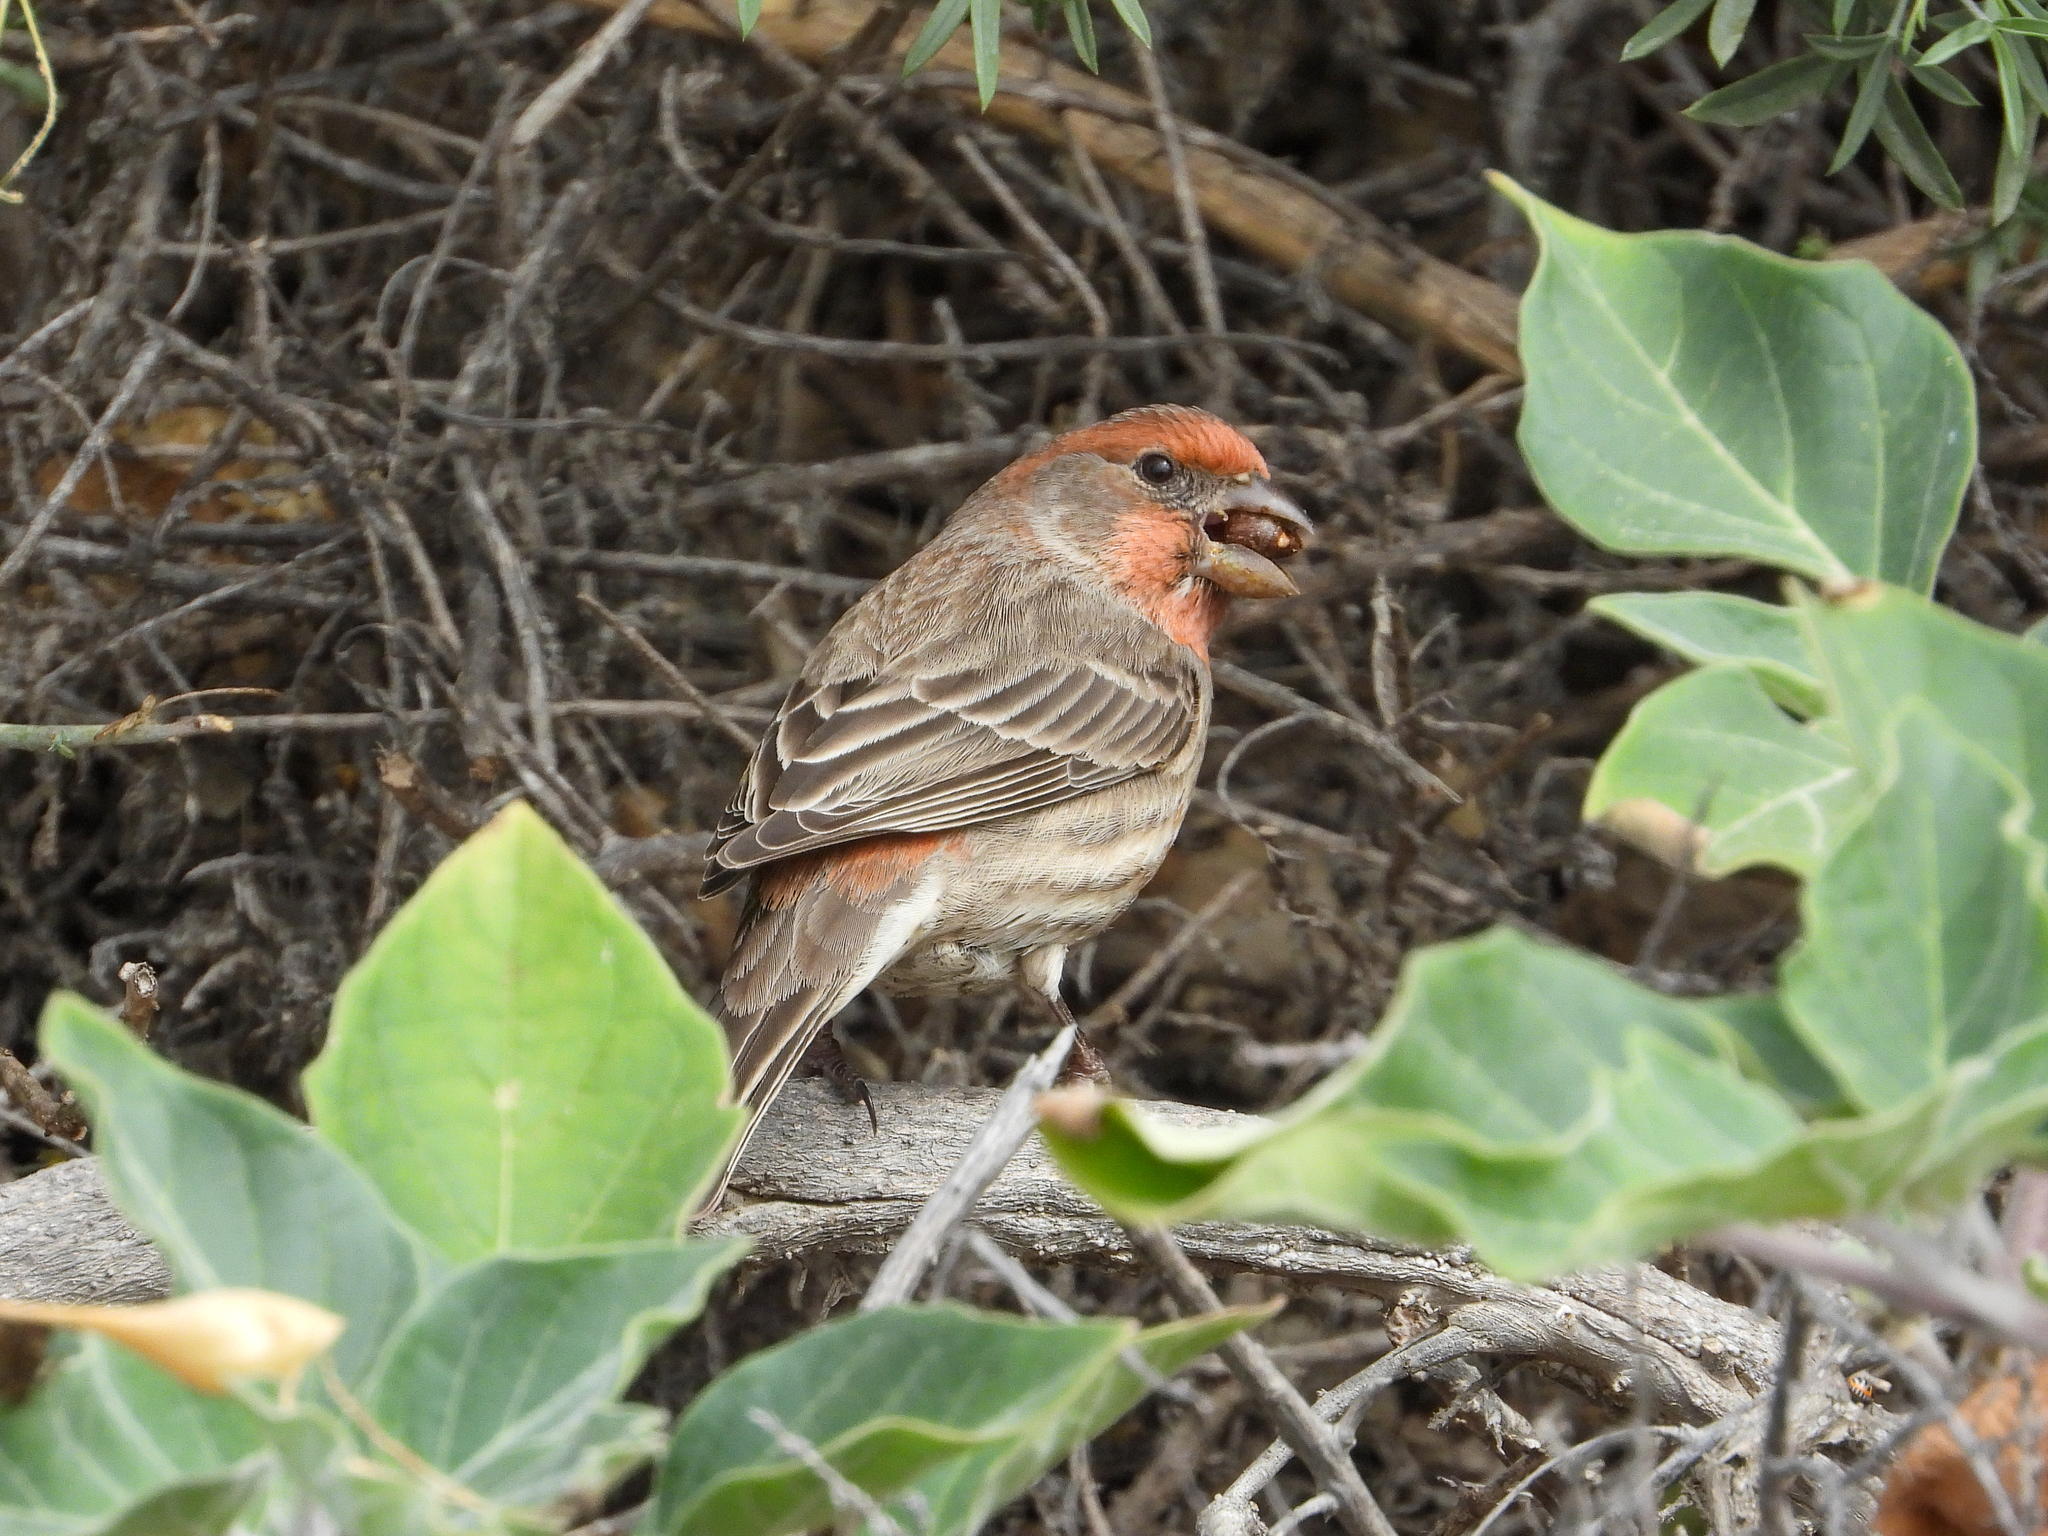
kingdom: Animalia
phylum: Chordata
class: Aves
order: Passeriformes
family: Fringillidae
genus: Haemorhous
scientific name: Haemorhous mexicanus
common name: House finch
